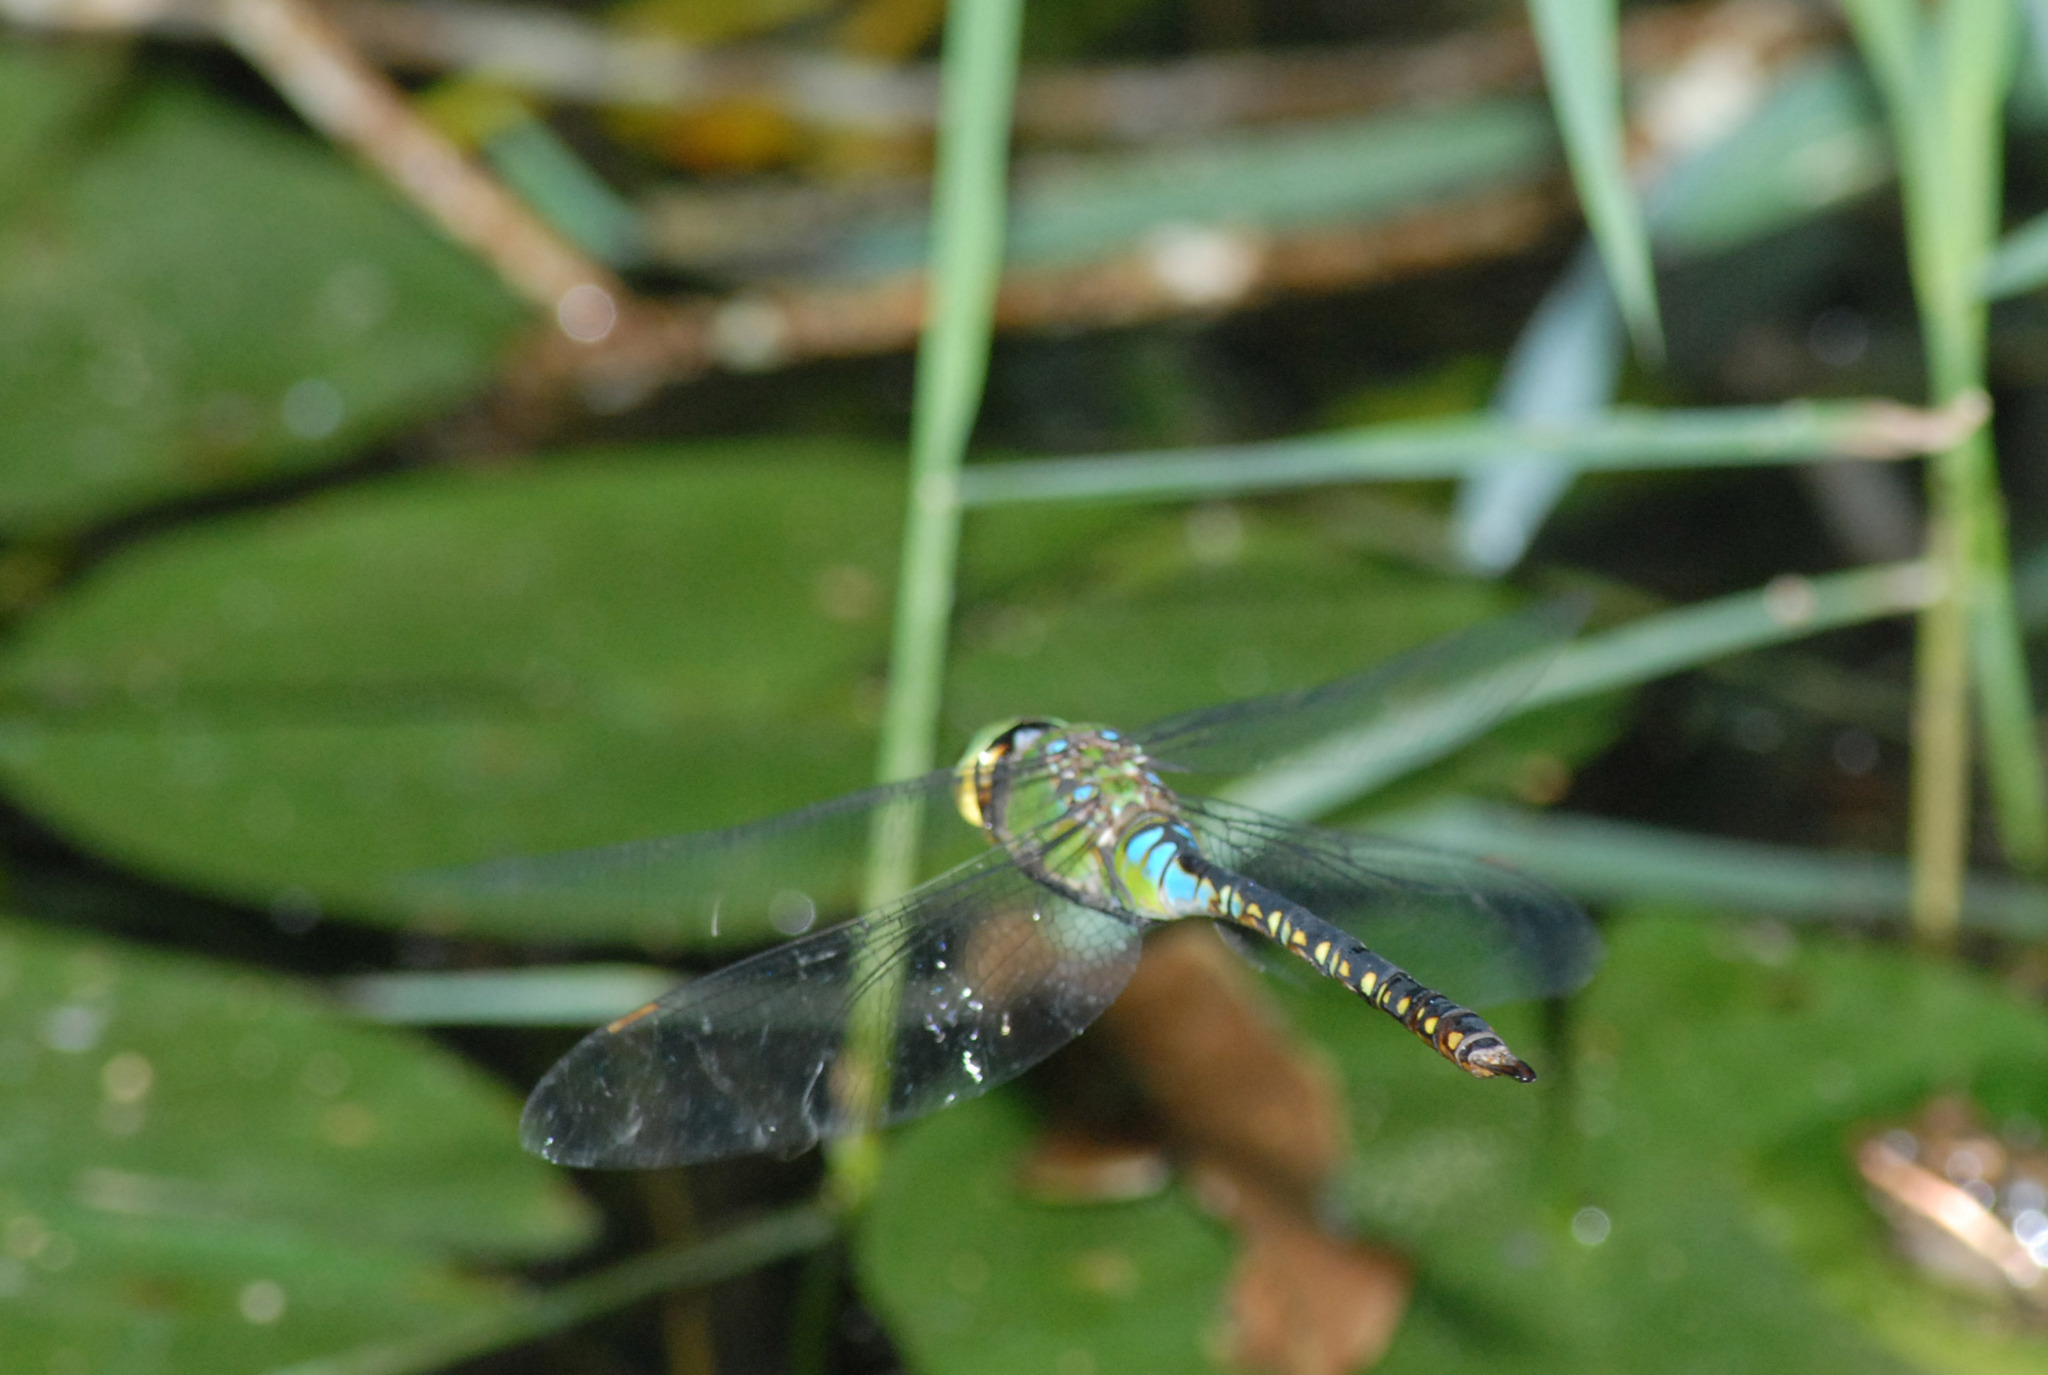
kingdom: Animalia
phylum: Arthropoda
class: Insecta
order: Odonata
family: Aeshnidae
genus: Anax
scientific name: Anax panybeus
